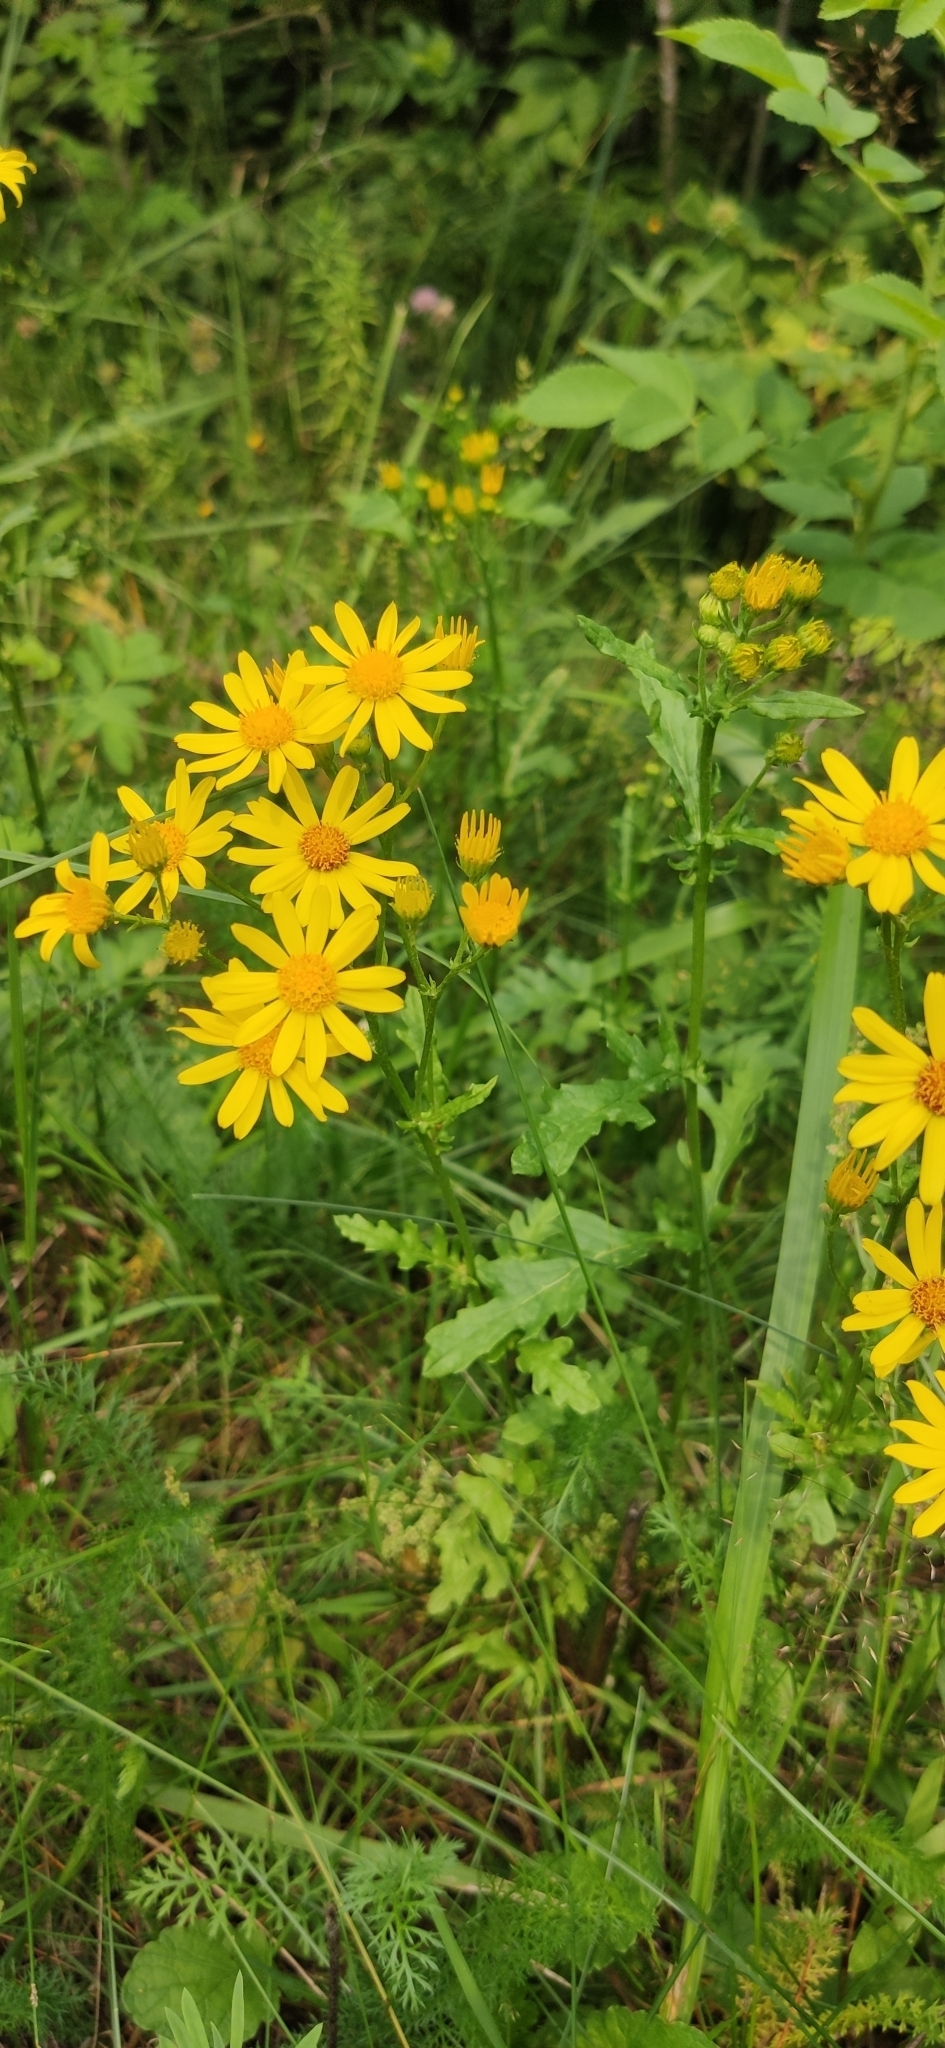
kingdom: Plantae
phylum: Tracheophyta
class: Magnoliopsida
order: Asterales
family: Asteraceae
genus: Jacobaea
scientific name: Jacobaea vulgaris
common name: Stinking willie
